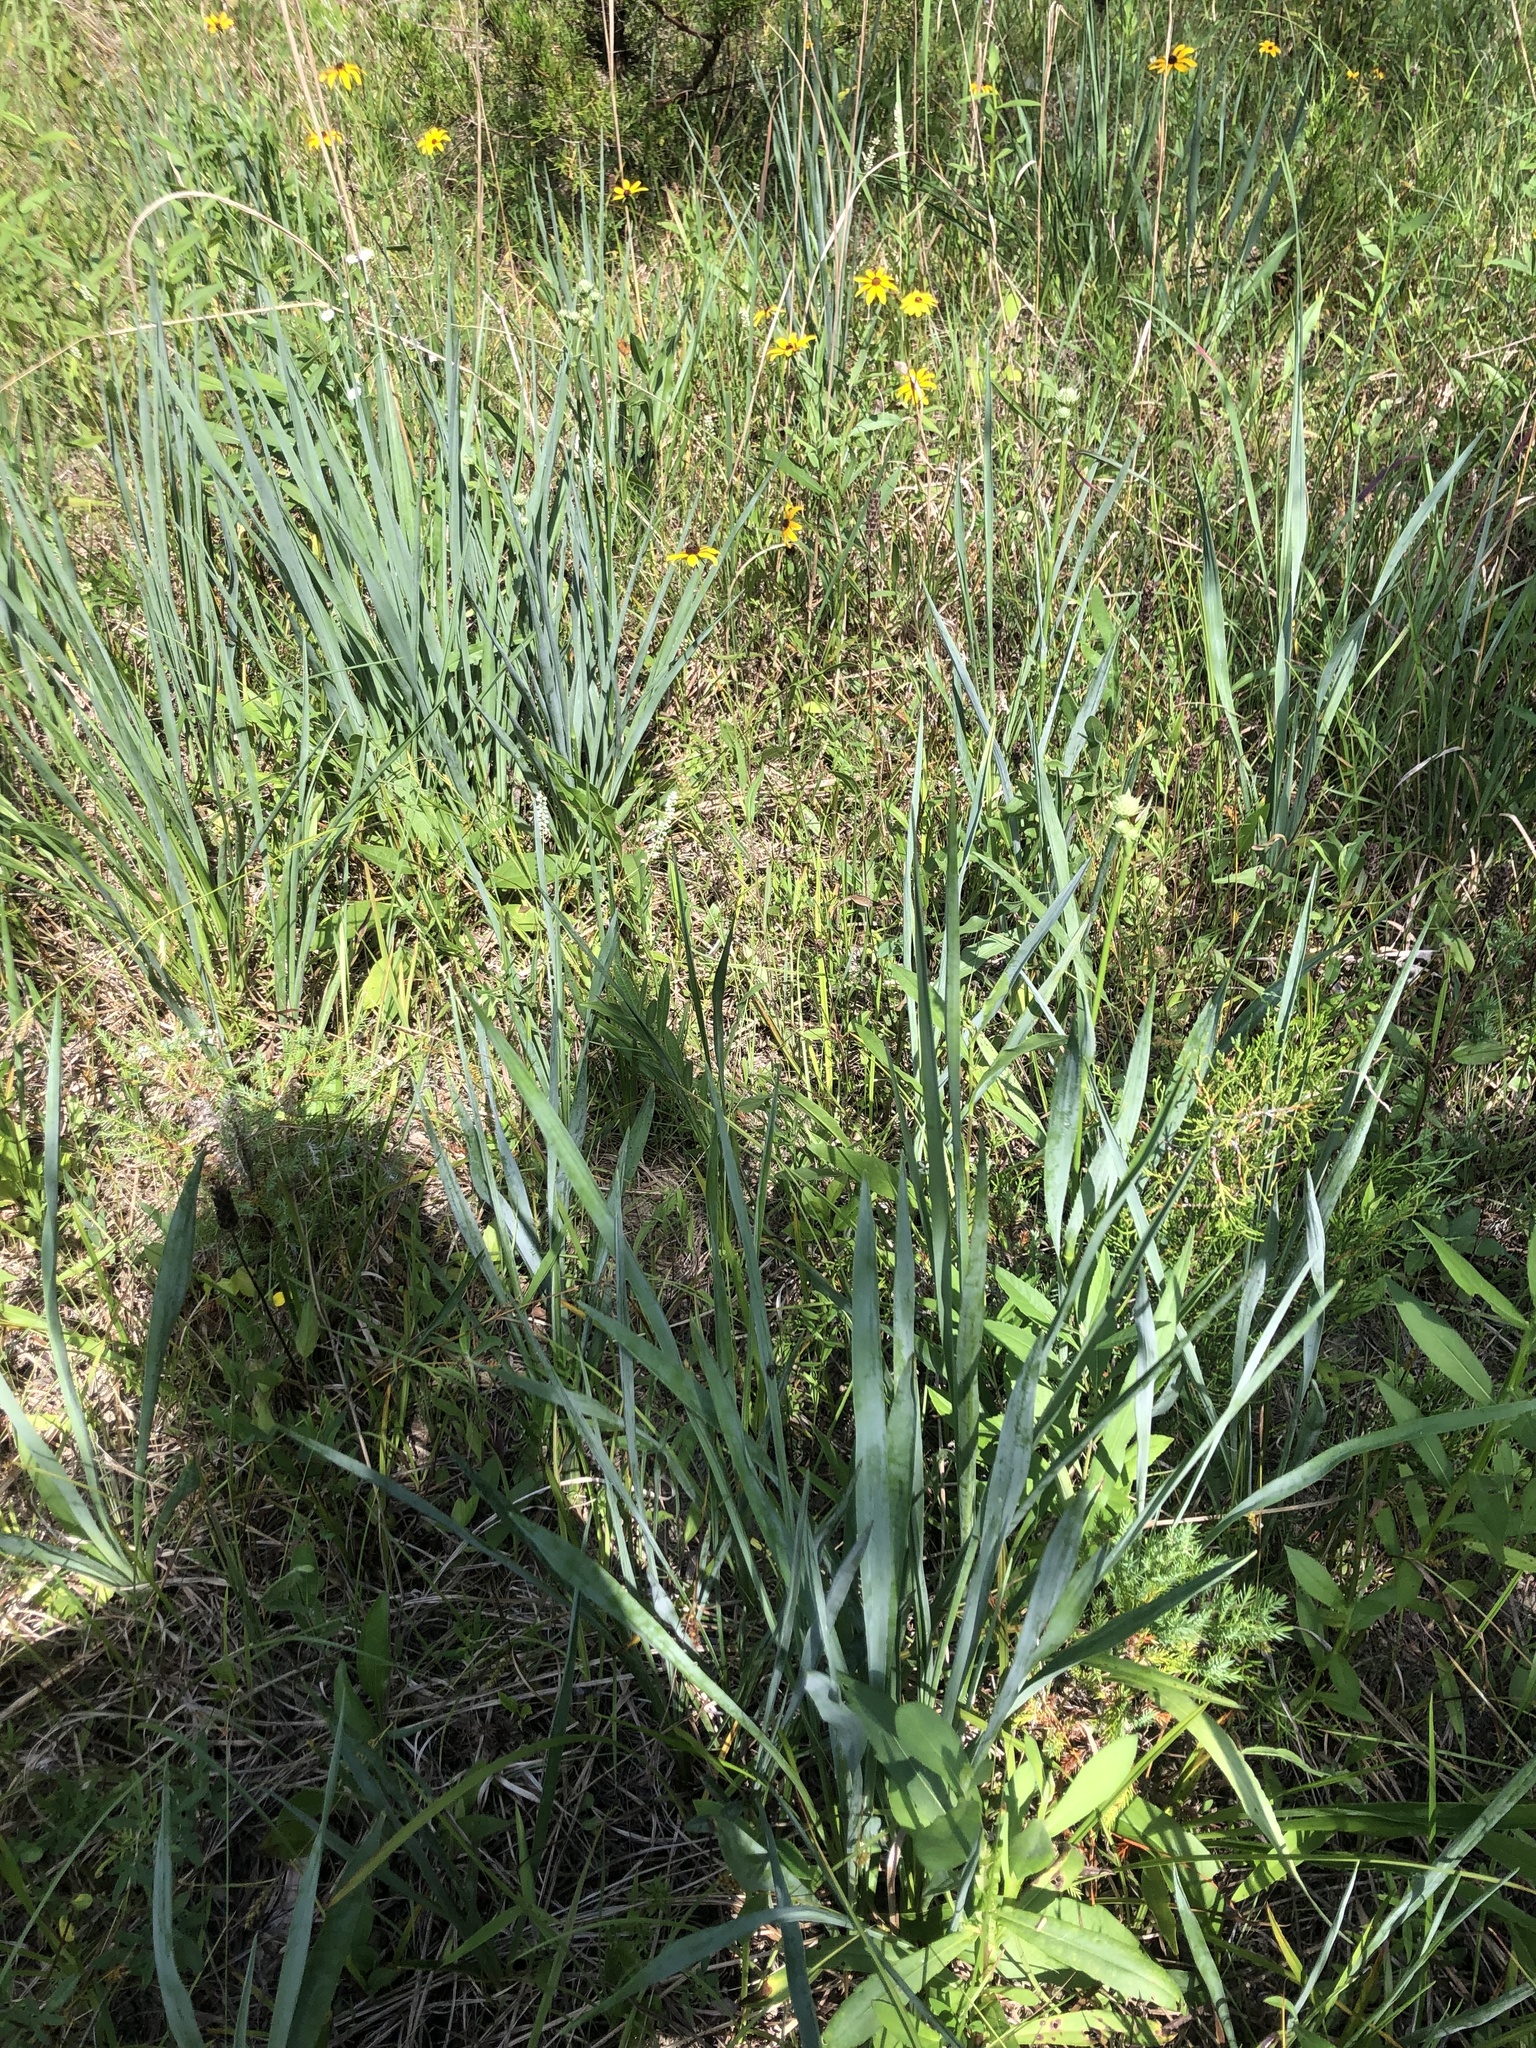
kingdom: Plantae
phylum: Tracheophyta
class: Magnoliopsida
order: Apiales
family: Apiaceae
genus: Eryngium
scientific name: Eryngium yuccifolium
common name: Button eryngo
